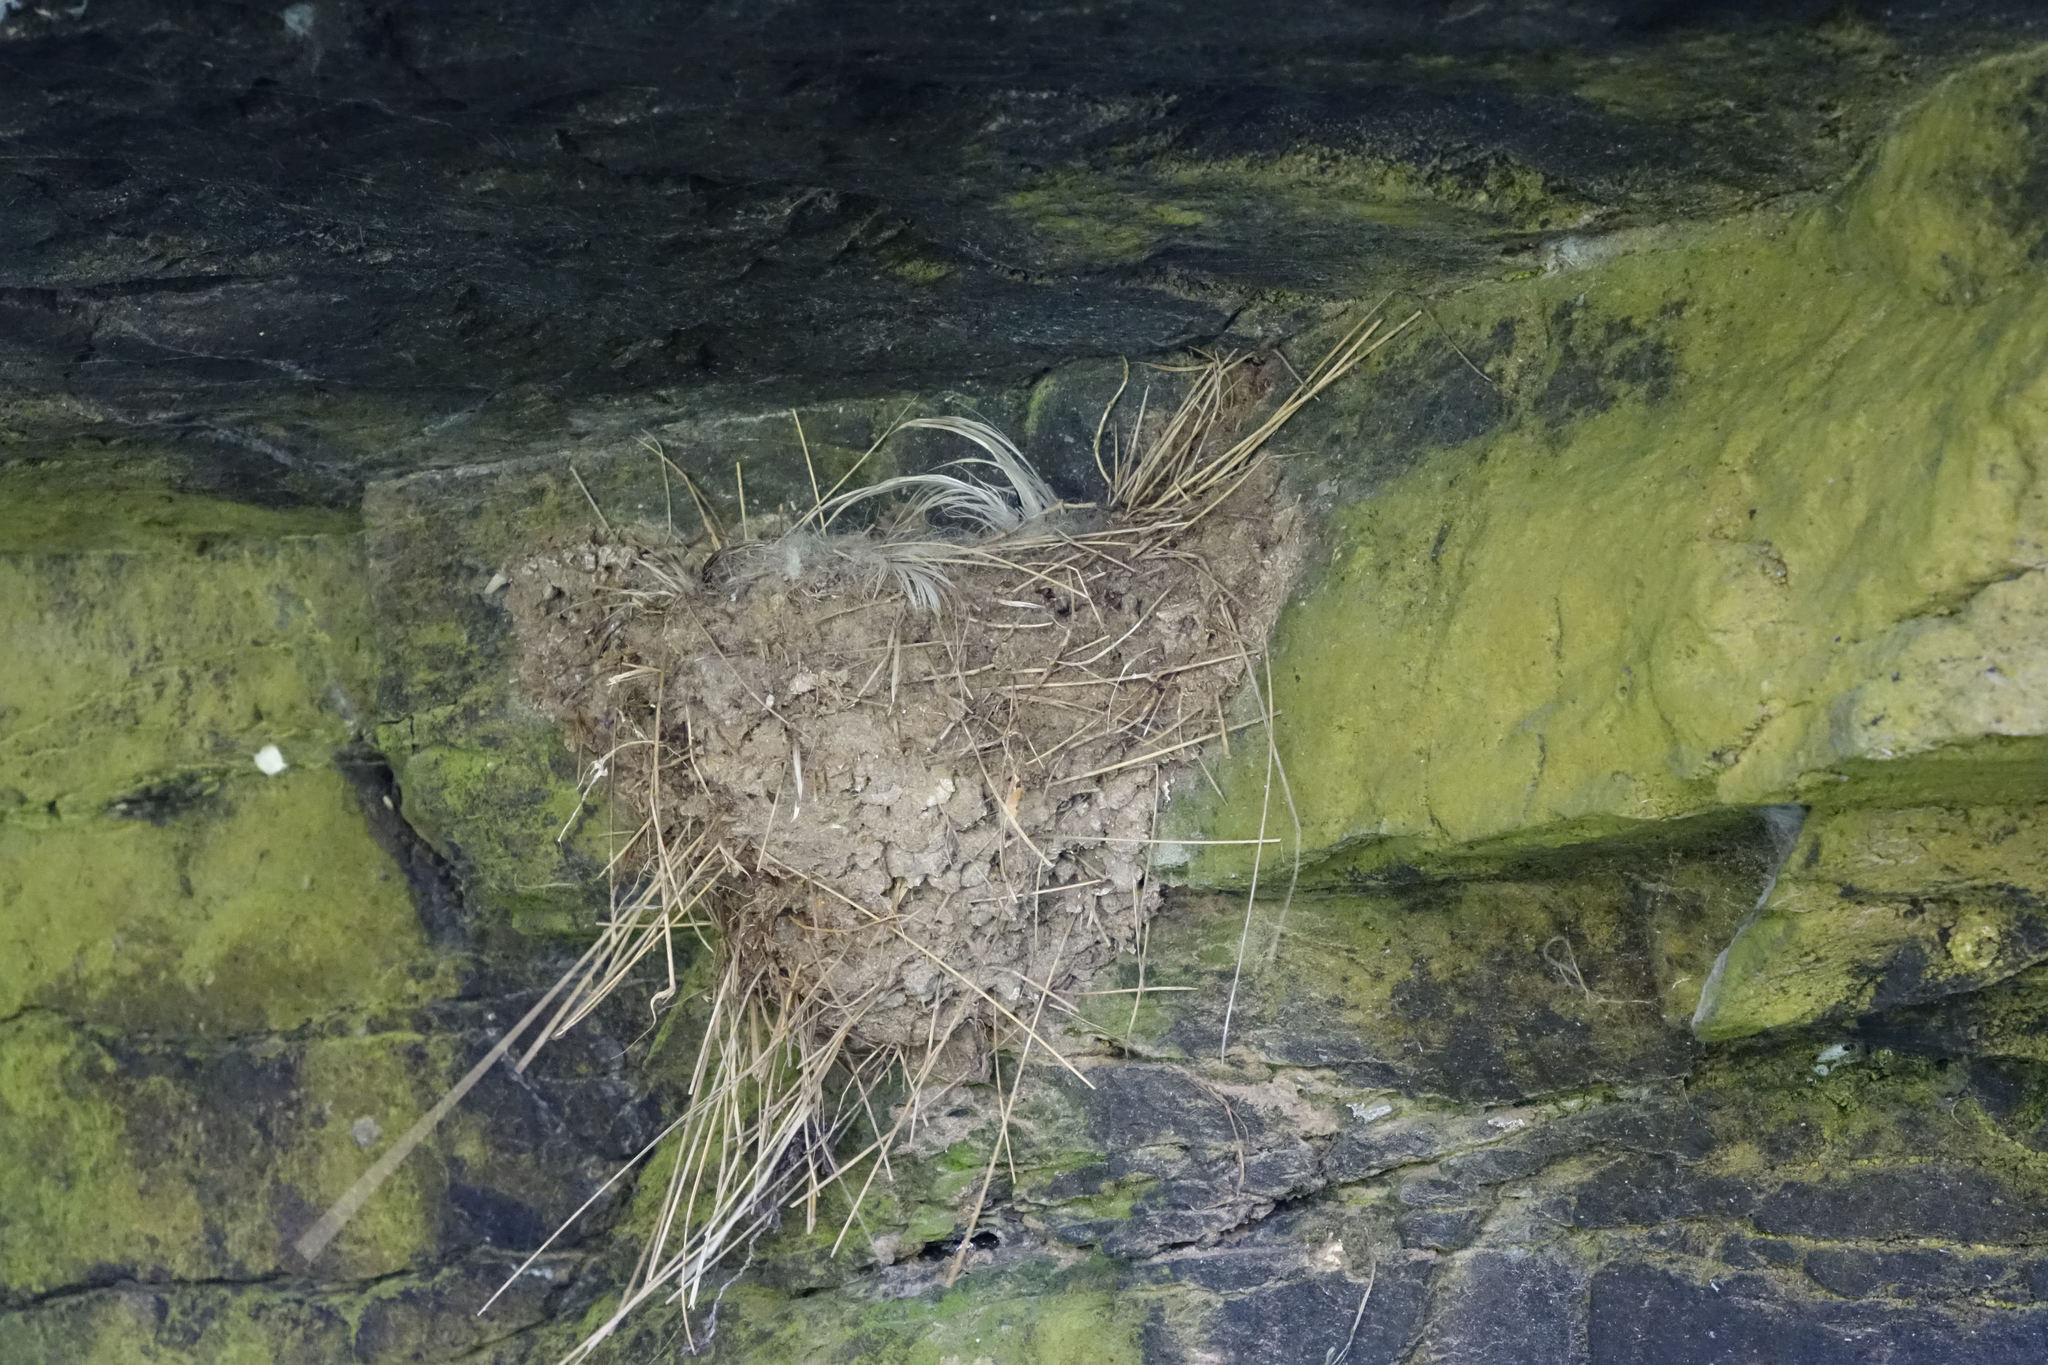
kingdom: Animalia
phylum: Chordata
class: Aves
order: Passeriformes
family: Hirundinidae
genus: Hirundo
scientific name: Hirundo neoxena
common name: Welcome swallow
